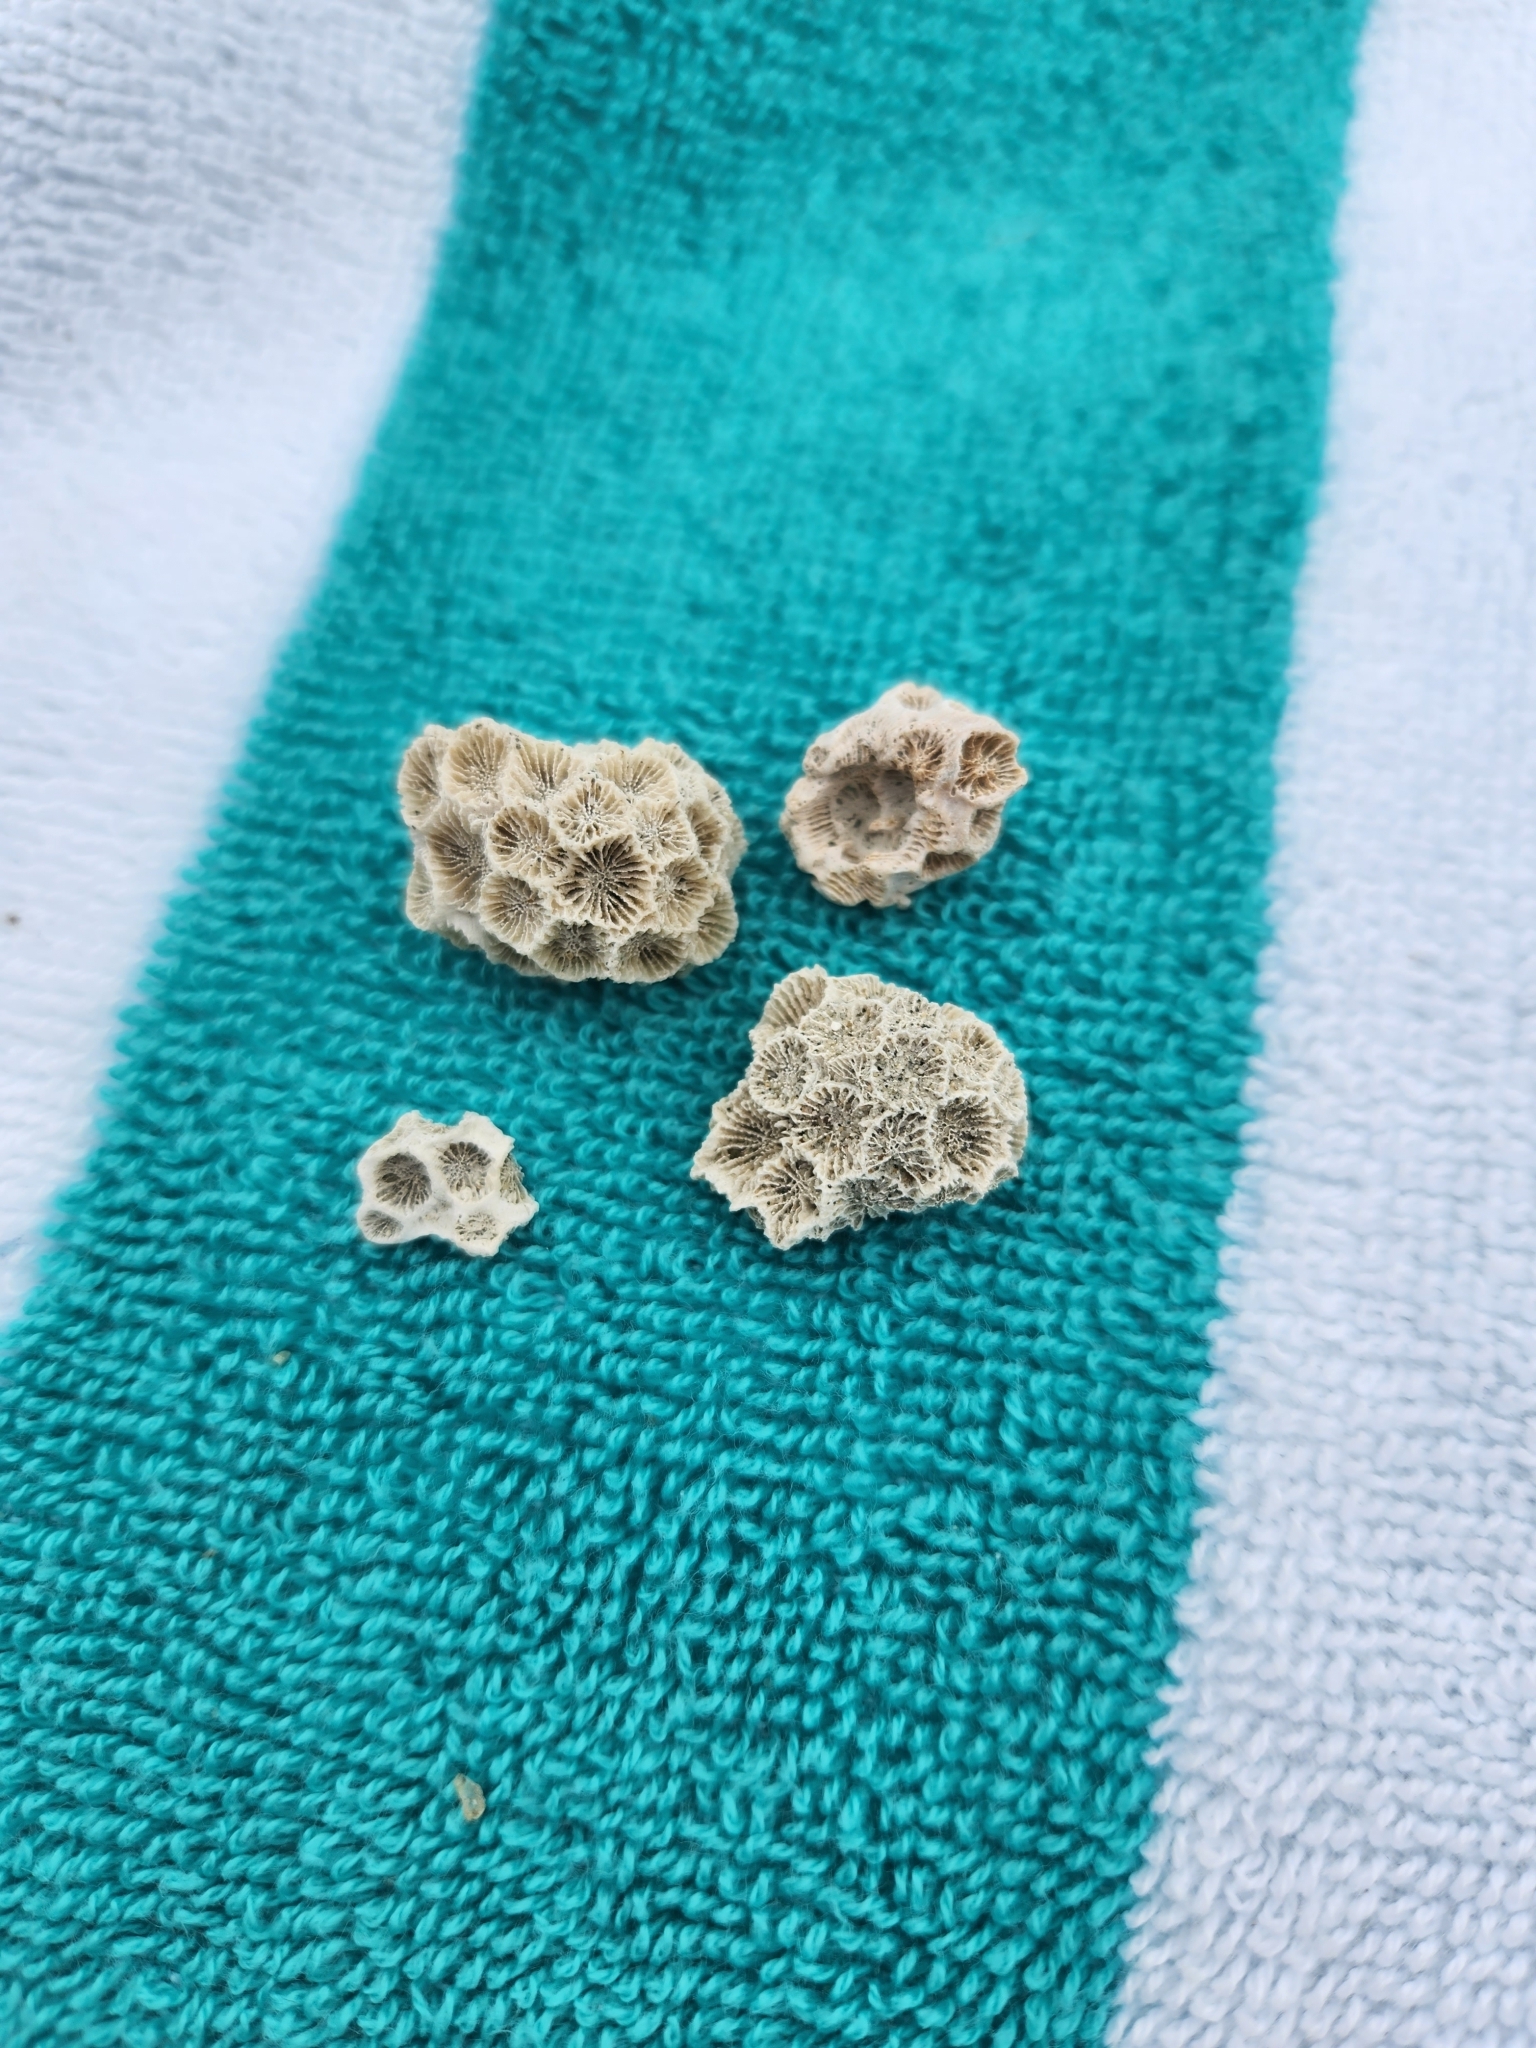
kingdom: Animalia
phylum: Cnidaria
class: Anthozoa
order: Scleractinia
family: Astrangiidae
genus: Astrangia
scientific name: Astrangia poculata
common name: Northern star coral
